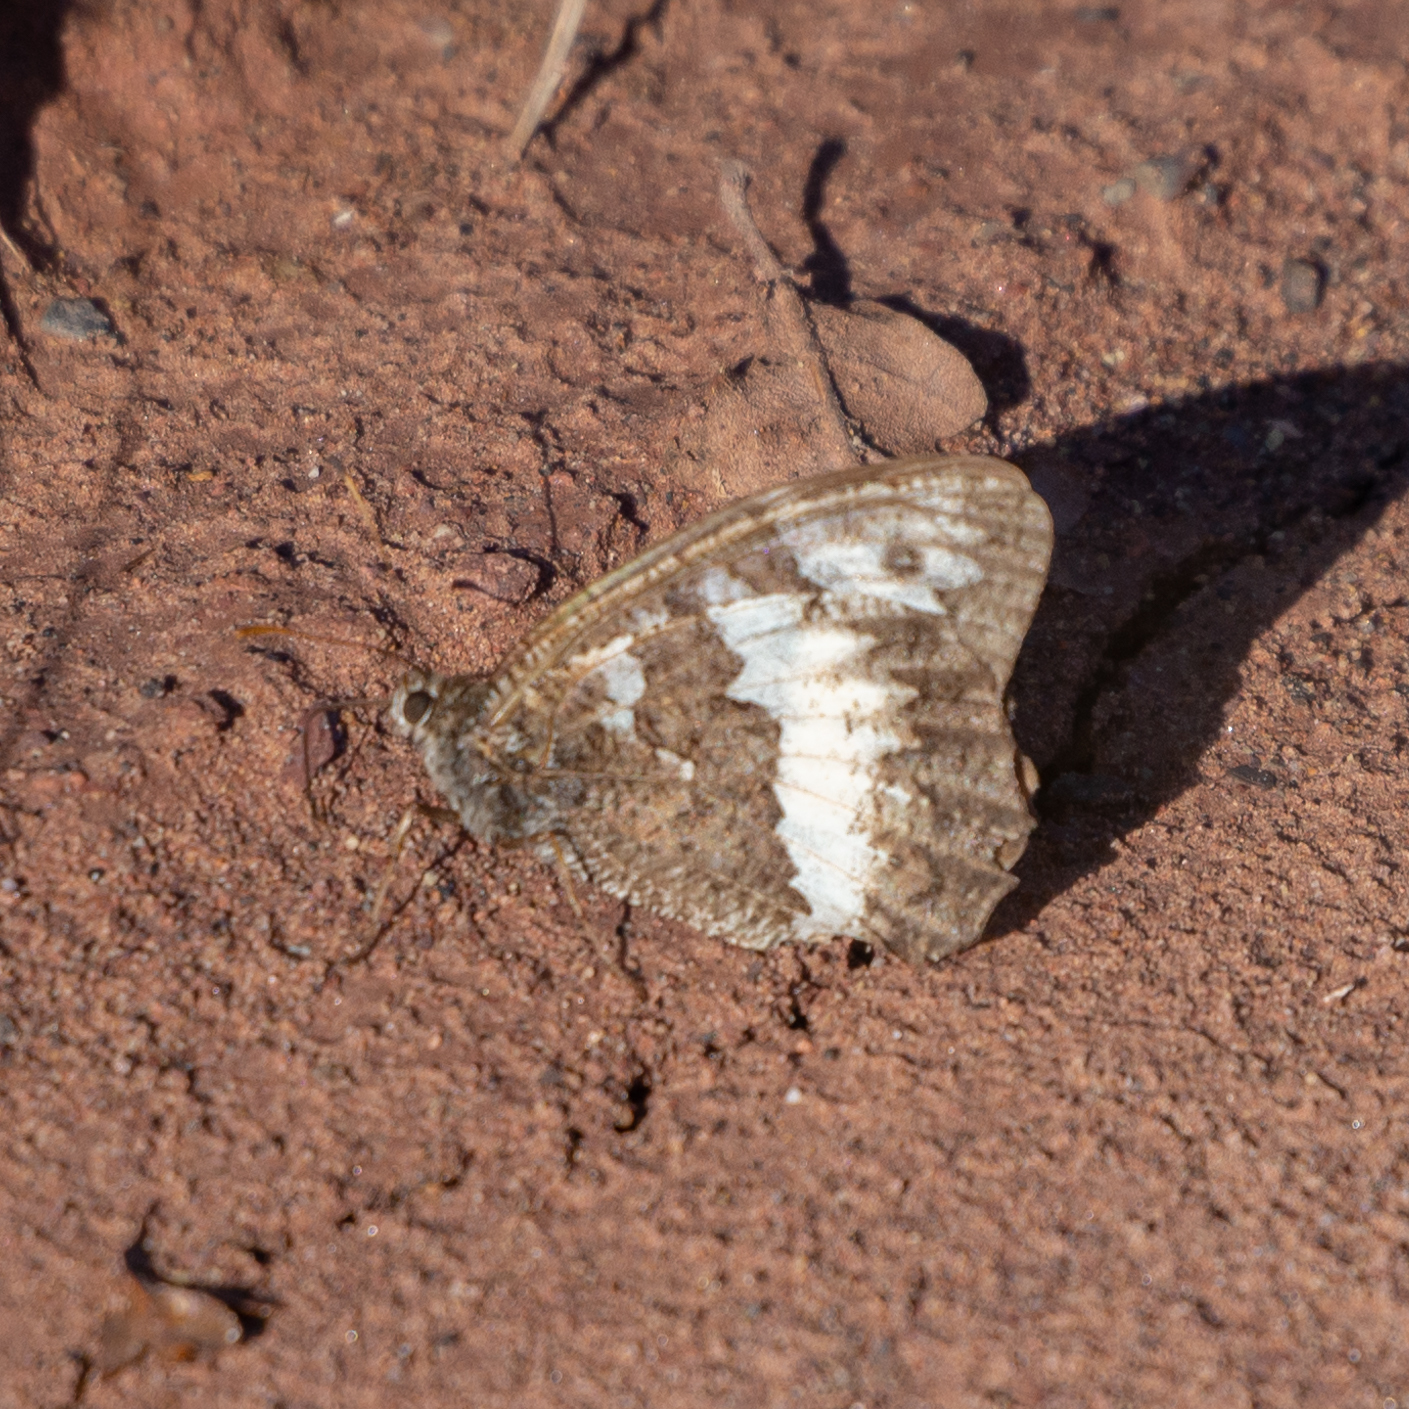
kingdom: Animalia
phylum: Arthropoda
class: Insecta
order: Lepidoptera
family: Lycaenidae
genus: Loweia
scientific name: Loweia tityrus
